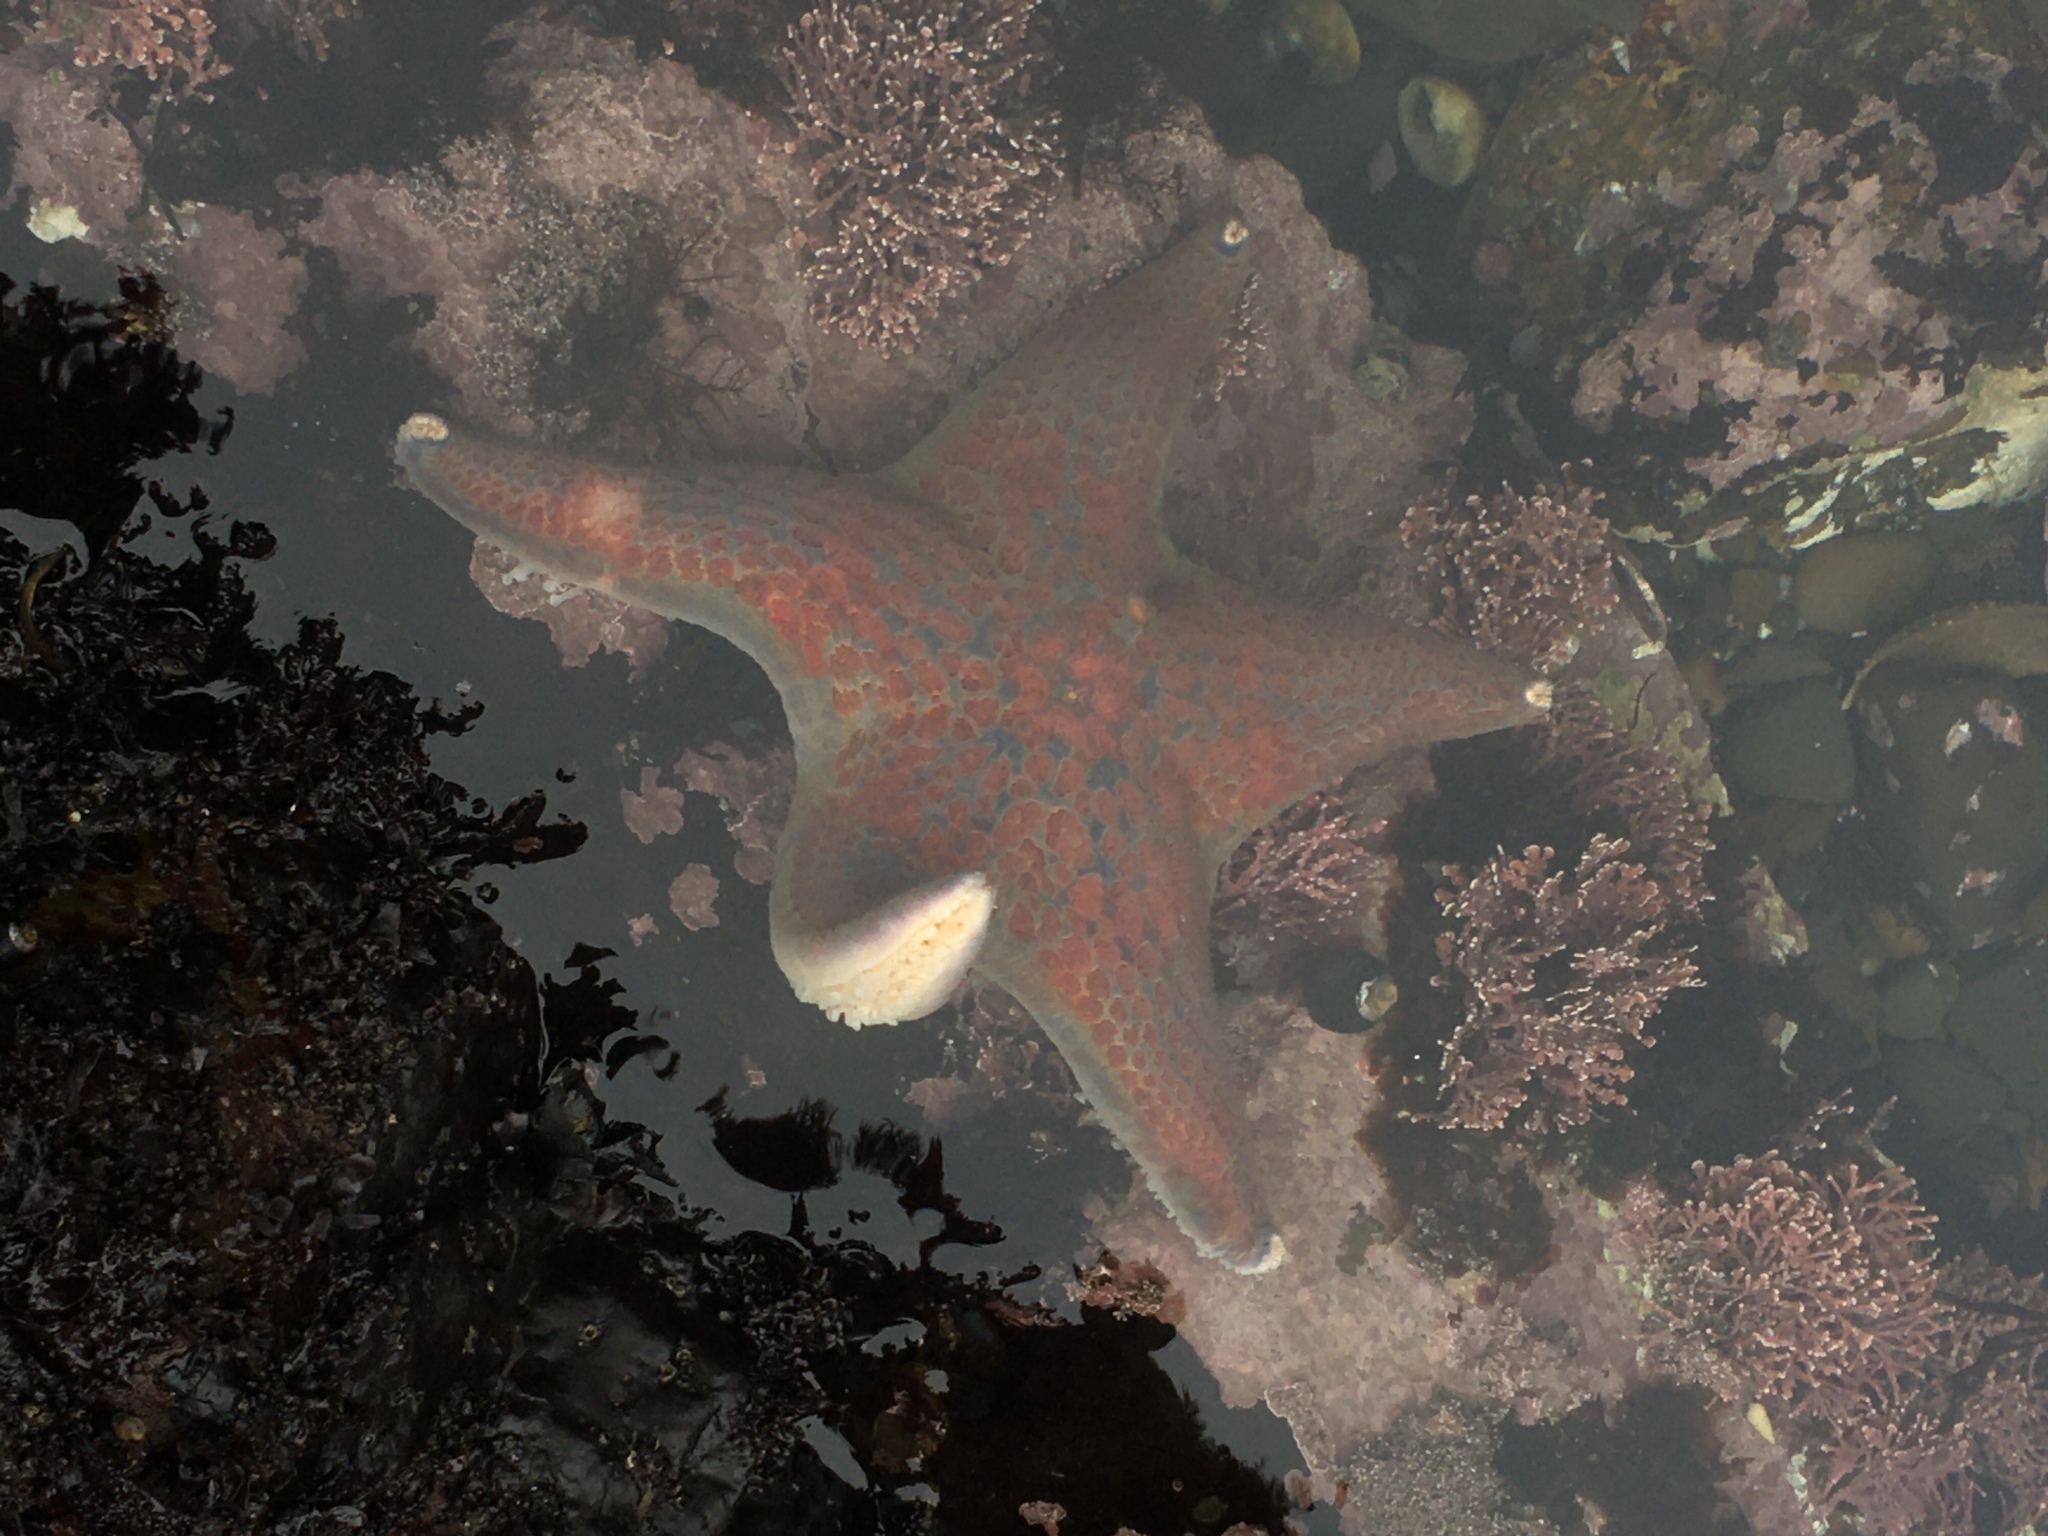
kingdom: Animalia
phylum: Echinodermata
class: Asteroidea
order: Valvatida
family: Asteropseidae
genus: Dermasterias
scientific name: Dermasterias imbricata
